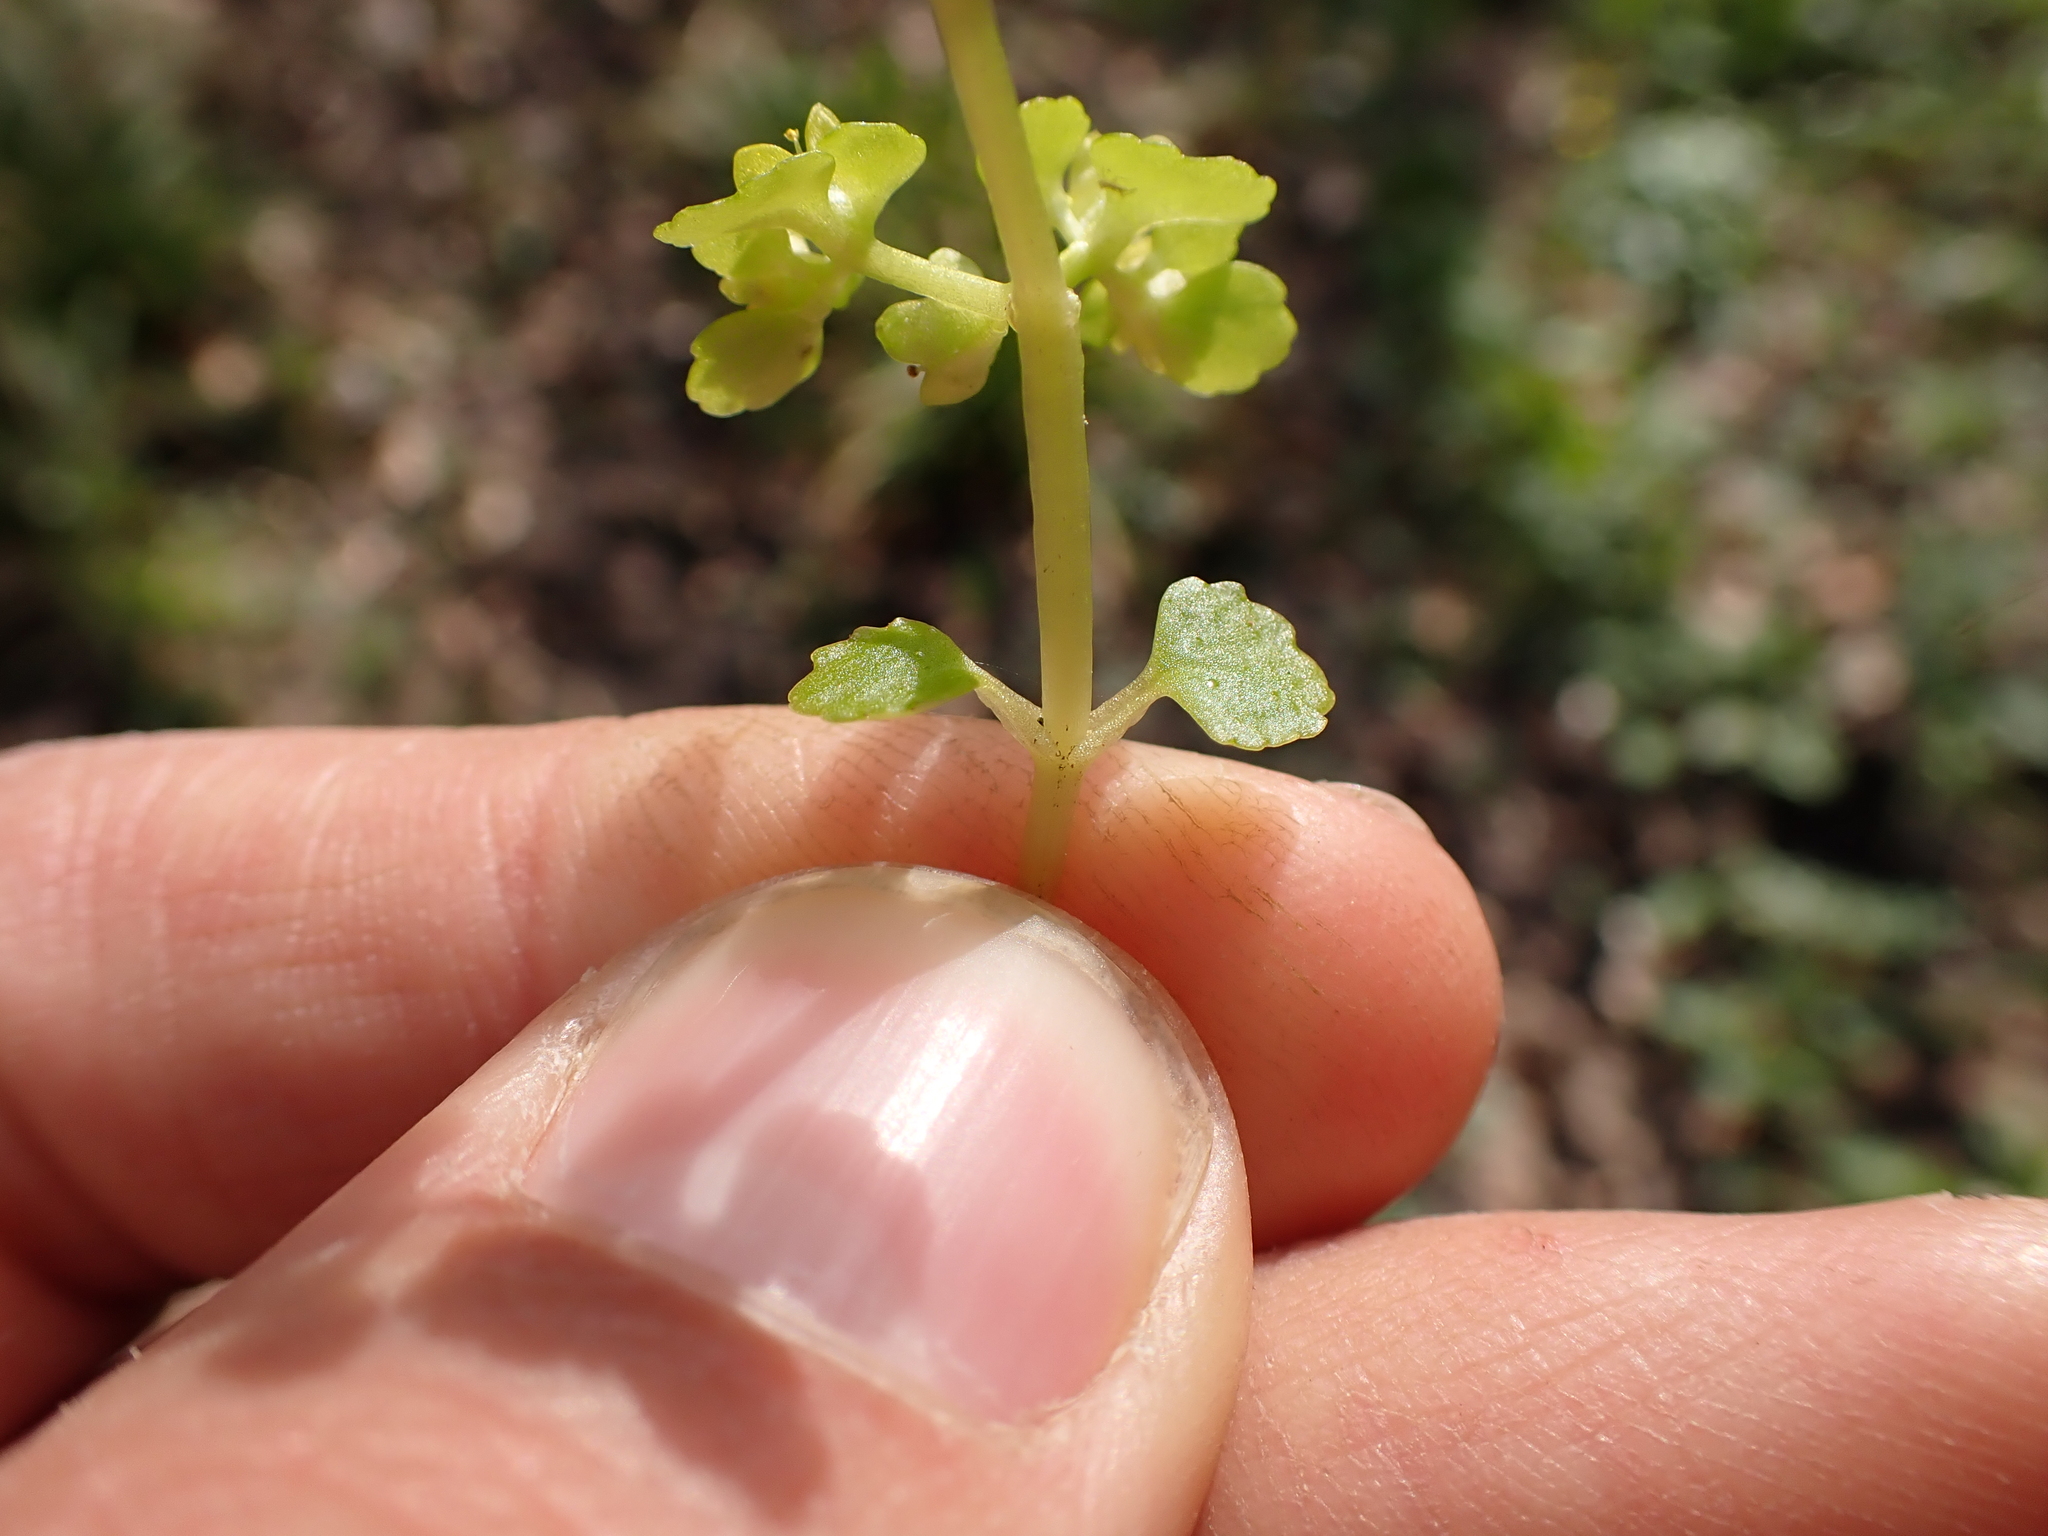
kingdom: Plantae
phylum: Tracheophyta
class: Magnoliopsida
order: Saxifragales
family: Saxifragaceae
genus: Chrysosplenium
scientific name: Chrysosplenium oppositifolium
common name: Opposite-leaved golden-saxifrage
